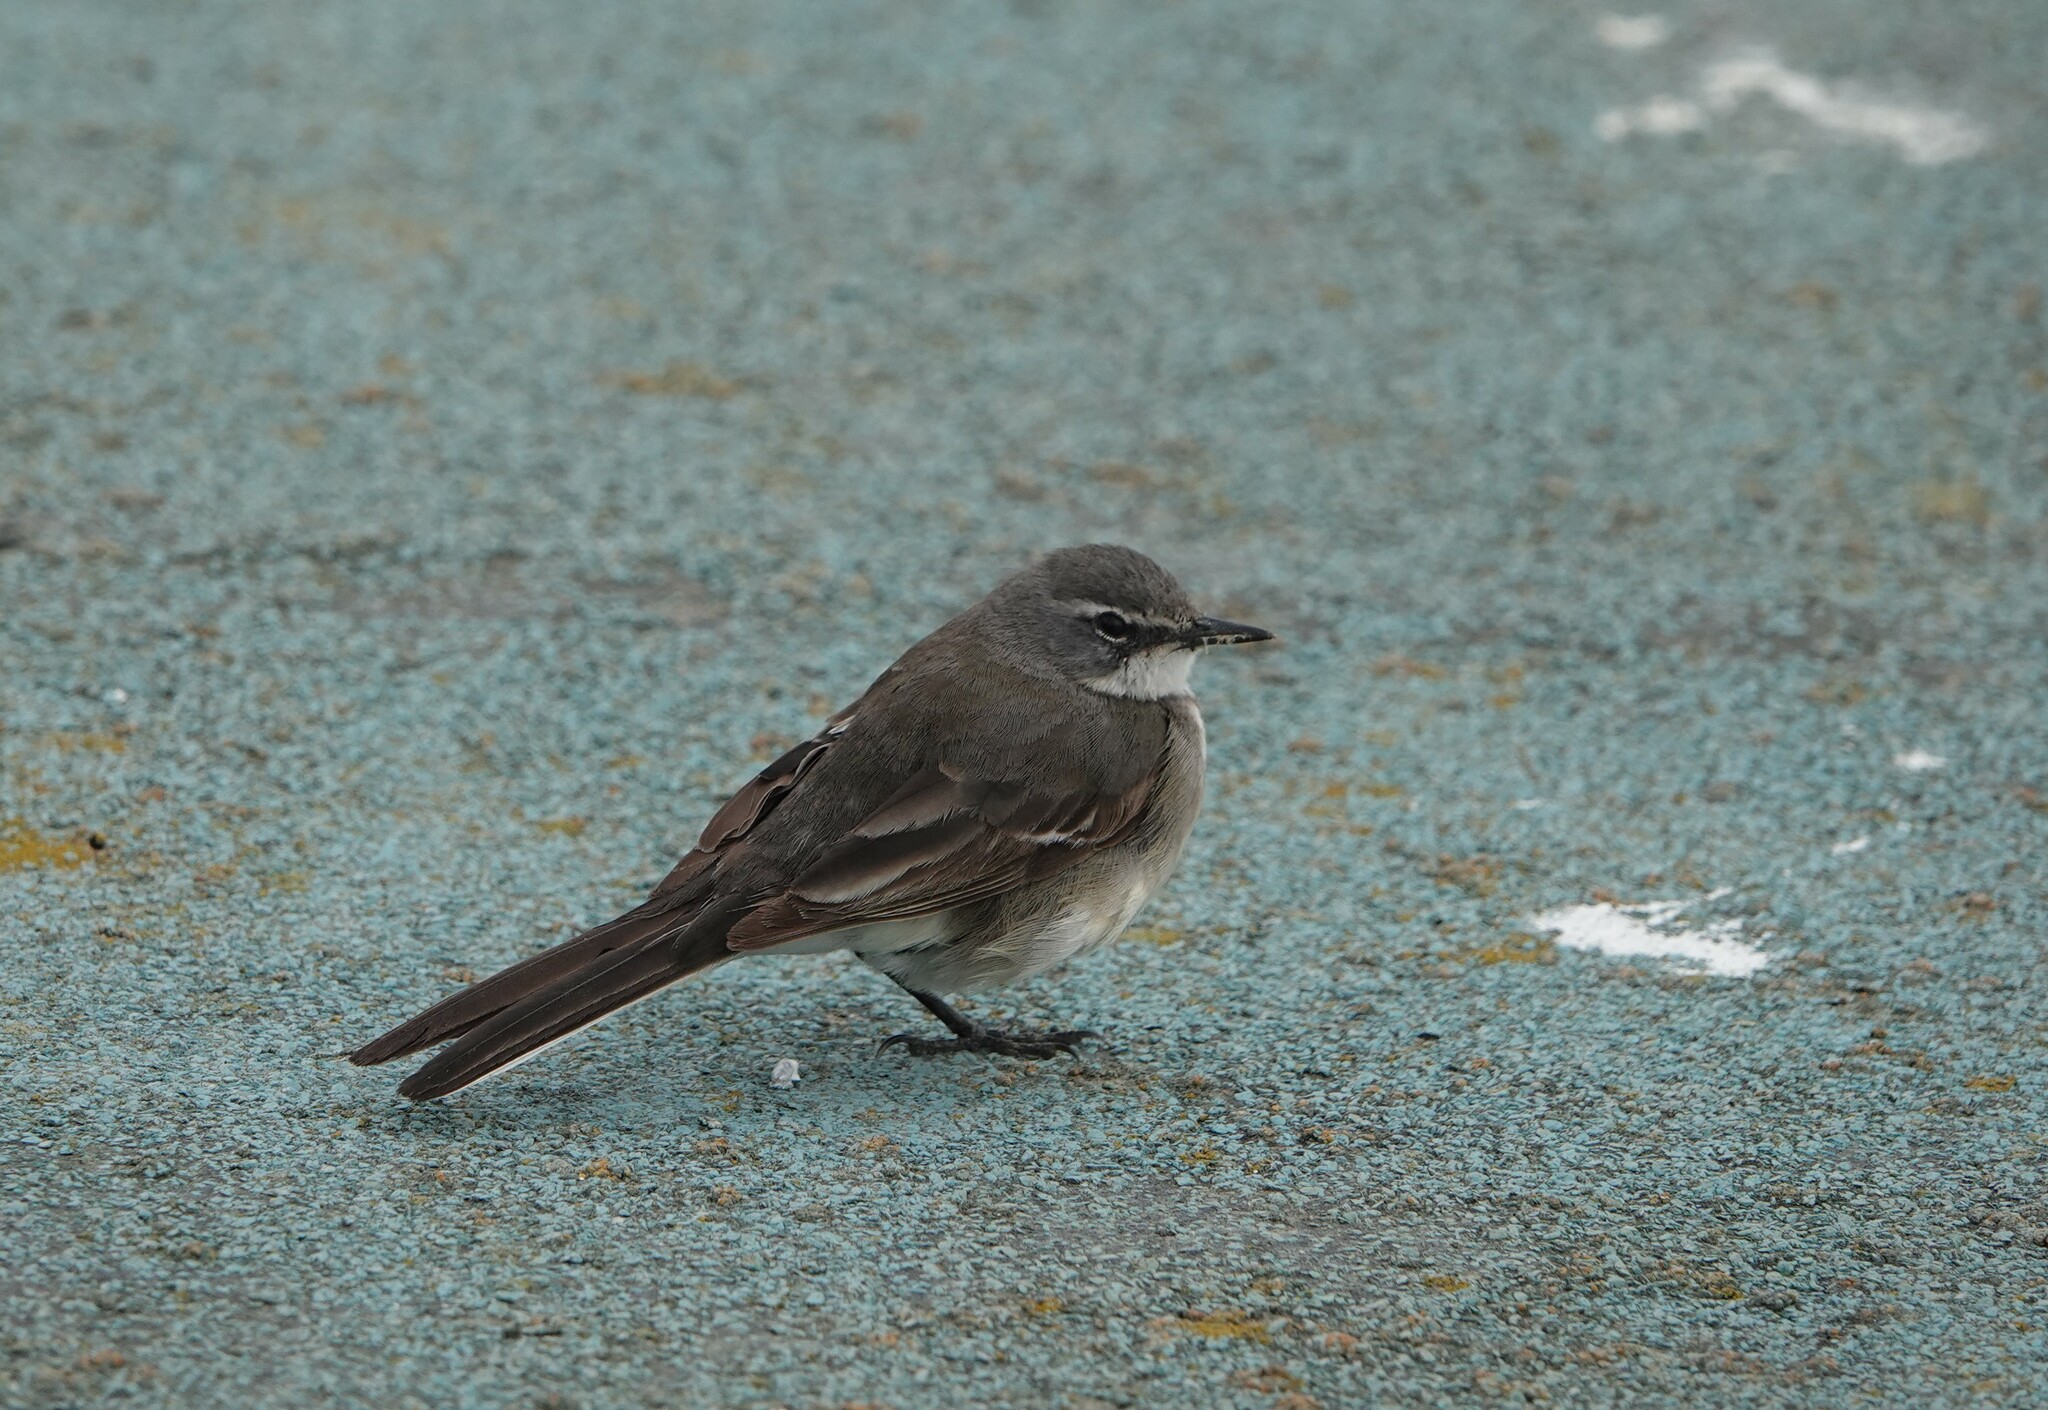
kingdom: Animalia
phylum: Chordata
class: Aves
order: Passeriformes
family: Motacillidae
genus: Motacilla
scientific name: Motacilla capensis
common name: Cape wagtail
